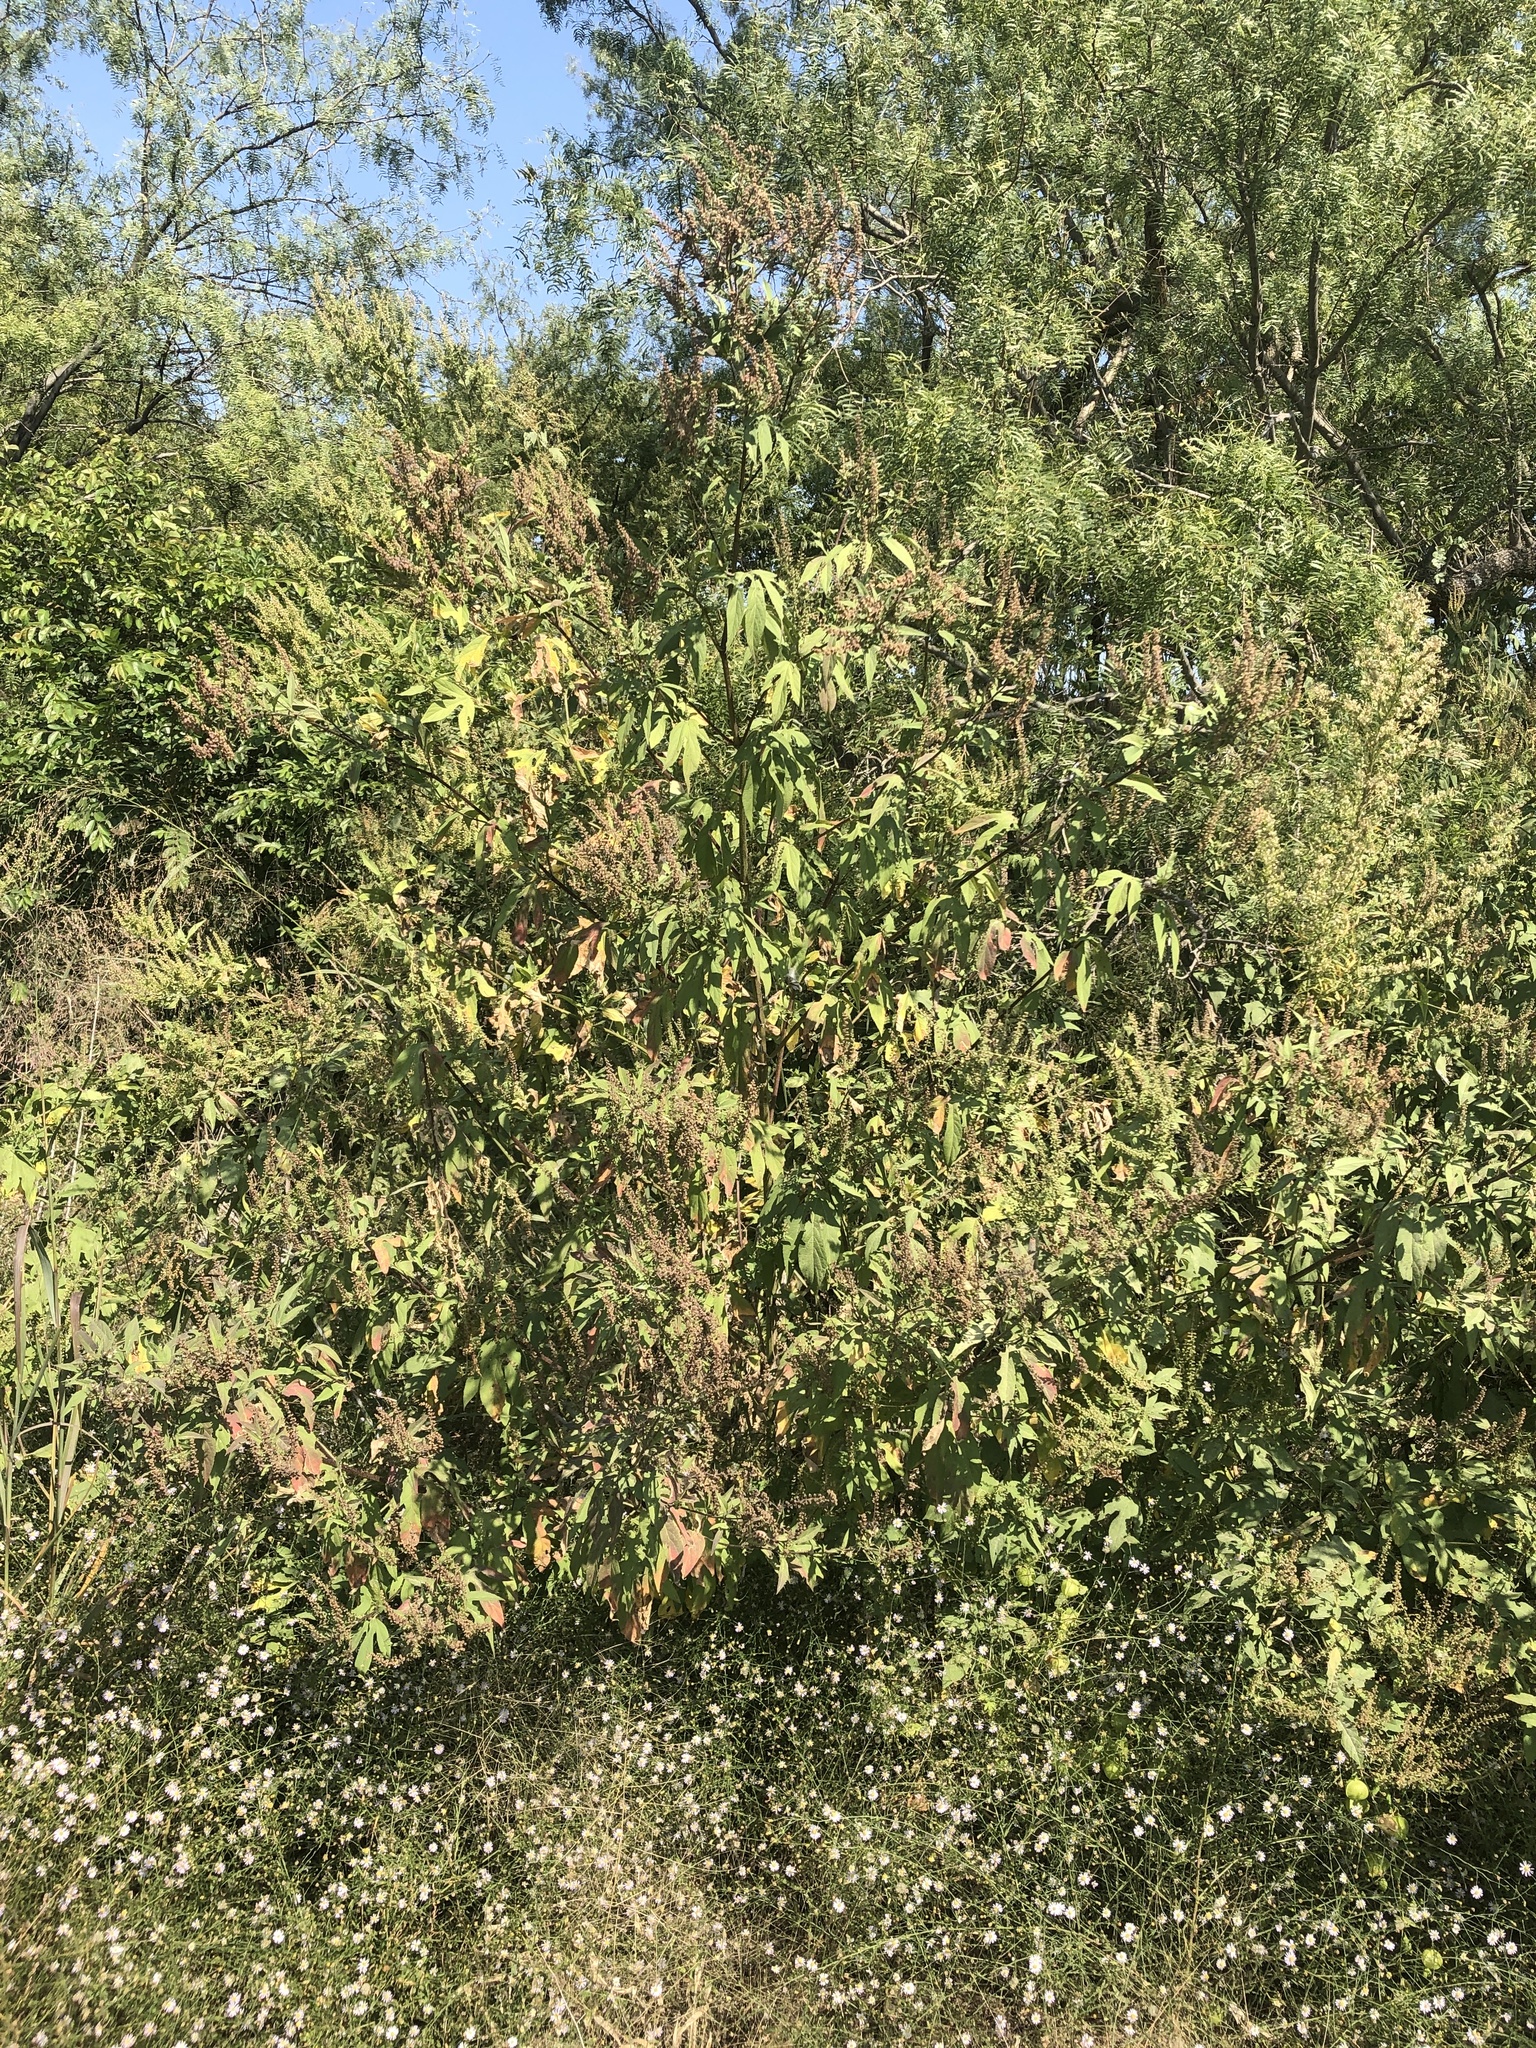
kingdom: Plantae
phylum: Tracheophyta
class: Magnoliopsida
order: Asterales
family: Asteraceae
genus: Ambrosia
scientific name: Ambrosia trifida
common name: Giant ragweed
